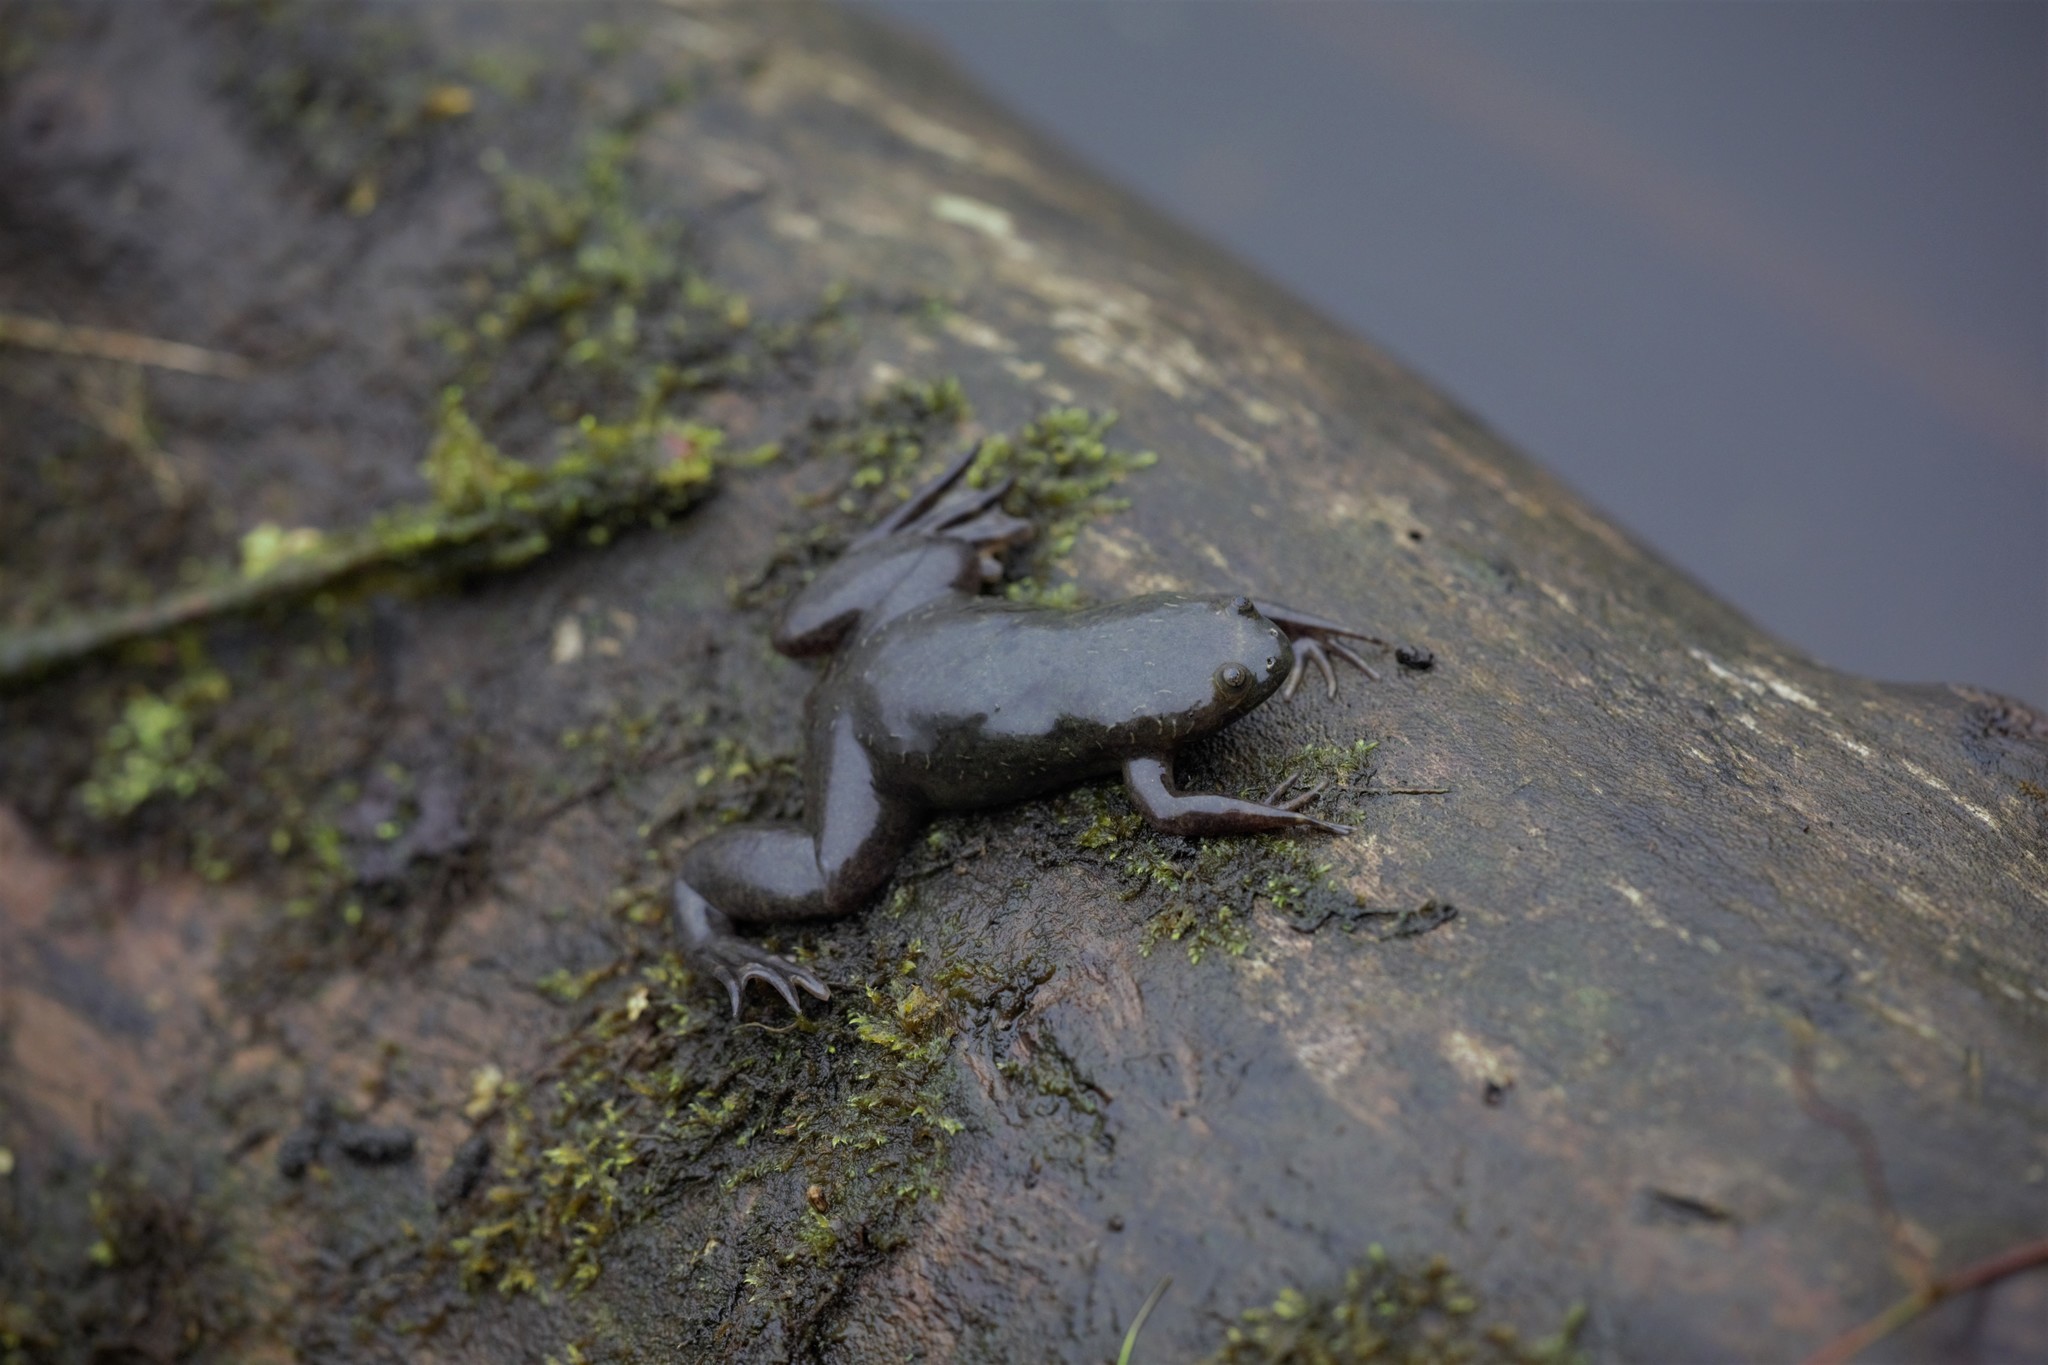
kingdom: Animalia
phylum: Chordata
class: Amphibia
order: Anura
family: Pipidae
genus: Xenopus
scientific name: Xenopus calcaratus
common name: Biafran clawed frog
